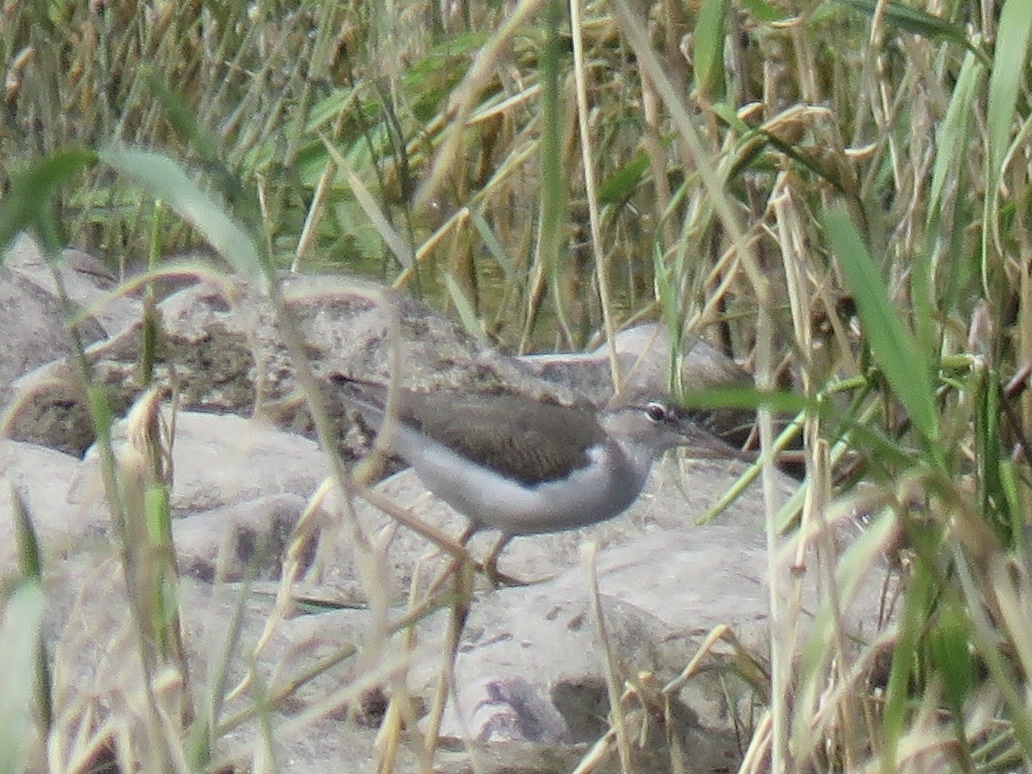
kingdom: Animalia
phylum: Chordata
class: Aves
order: Charadriiformes
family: Scolopacidae
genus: Actitis
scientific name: Actitis macularius
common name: Spotted sandpiper
